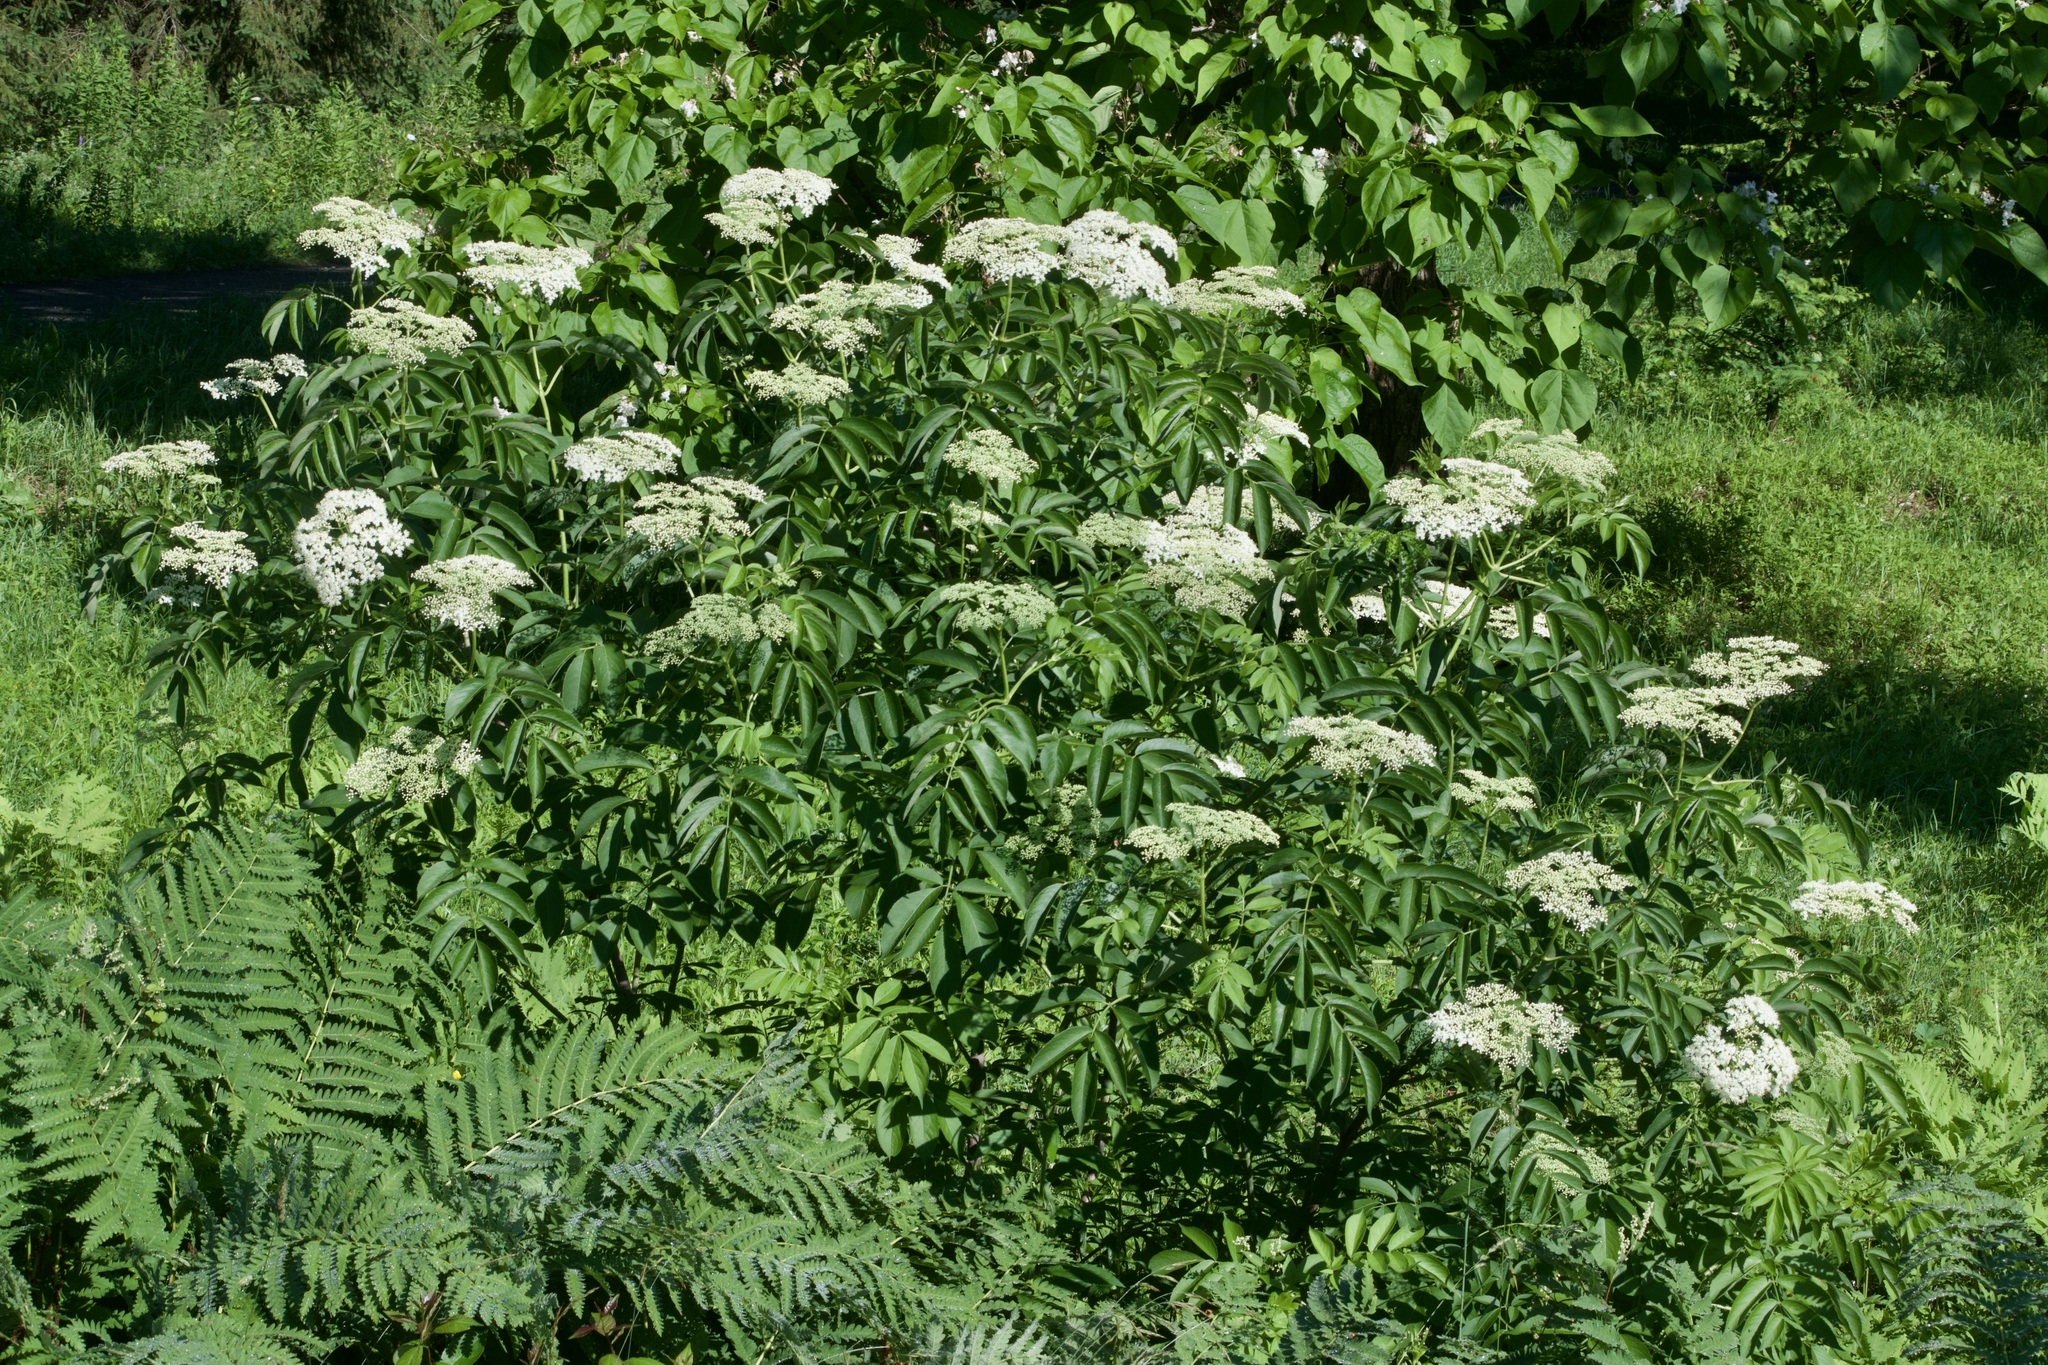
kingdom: Plantae
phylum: Tracheophyta
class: Magnoliopsida
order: Dipsacales
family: Viburnaceae
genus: Sambucus
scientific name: Sambucus canadensis
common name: American elder
